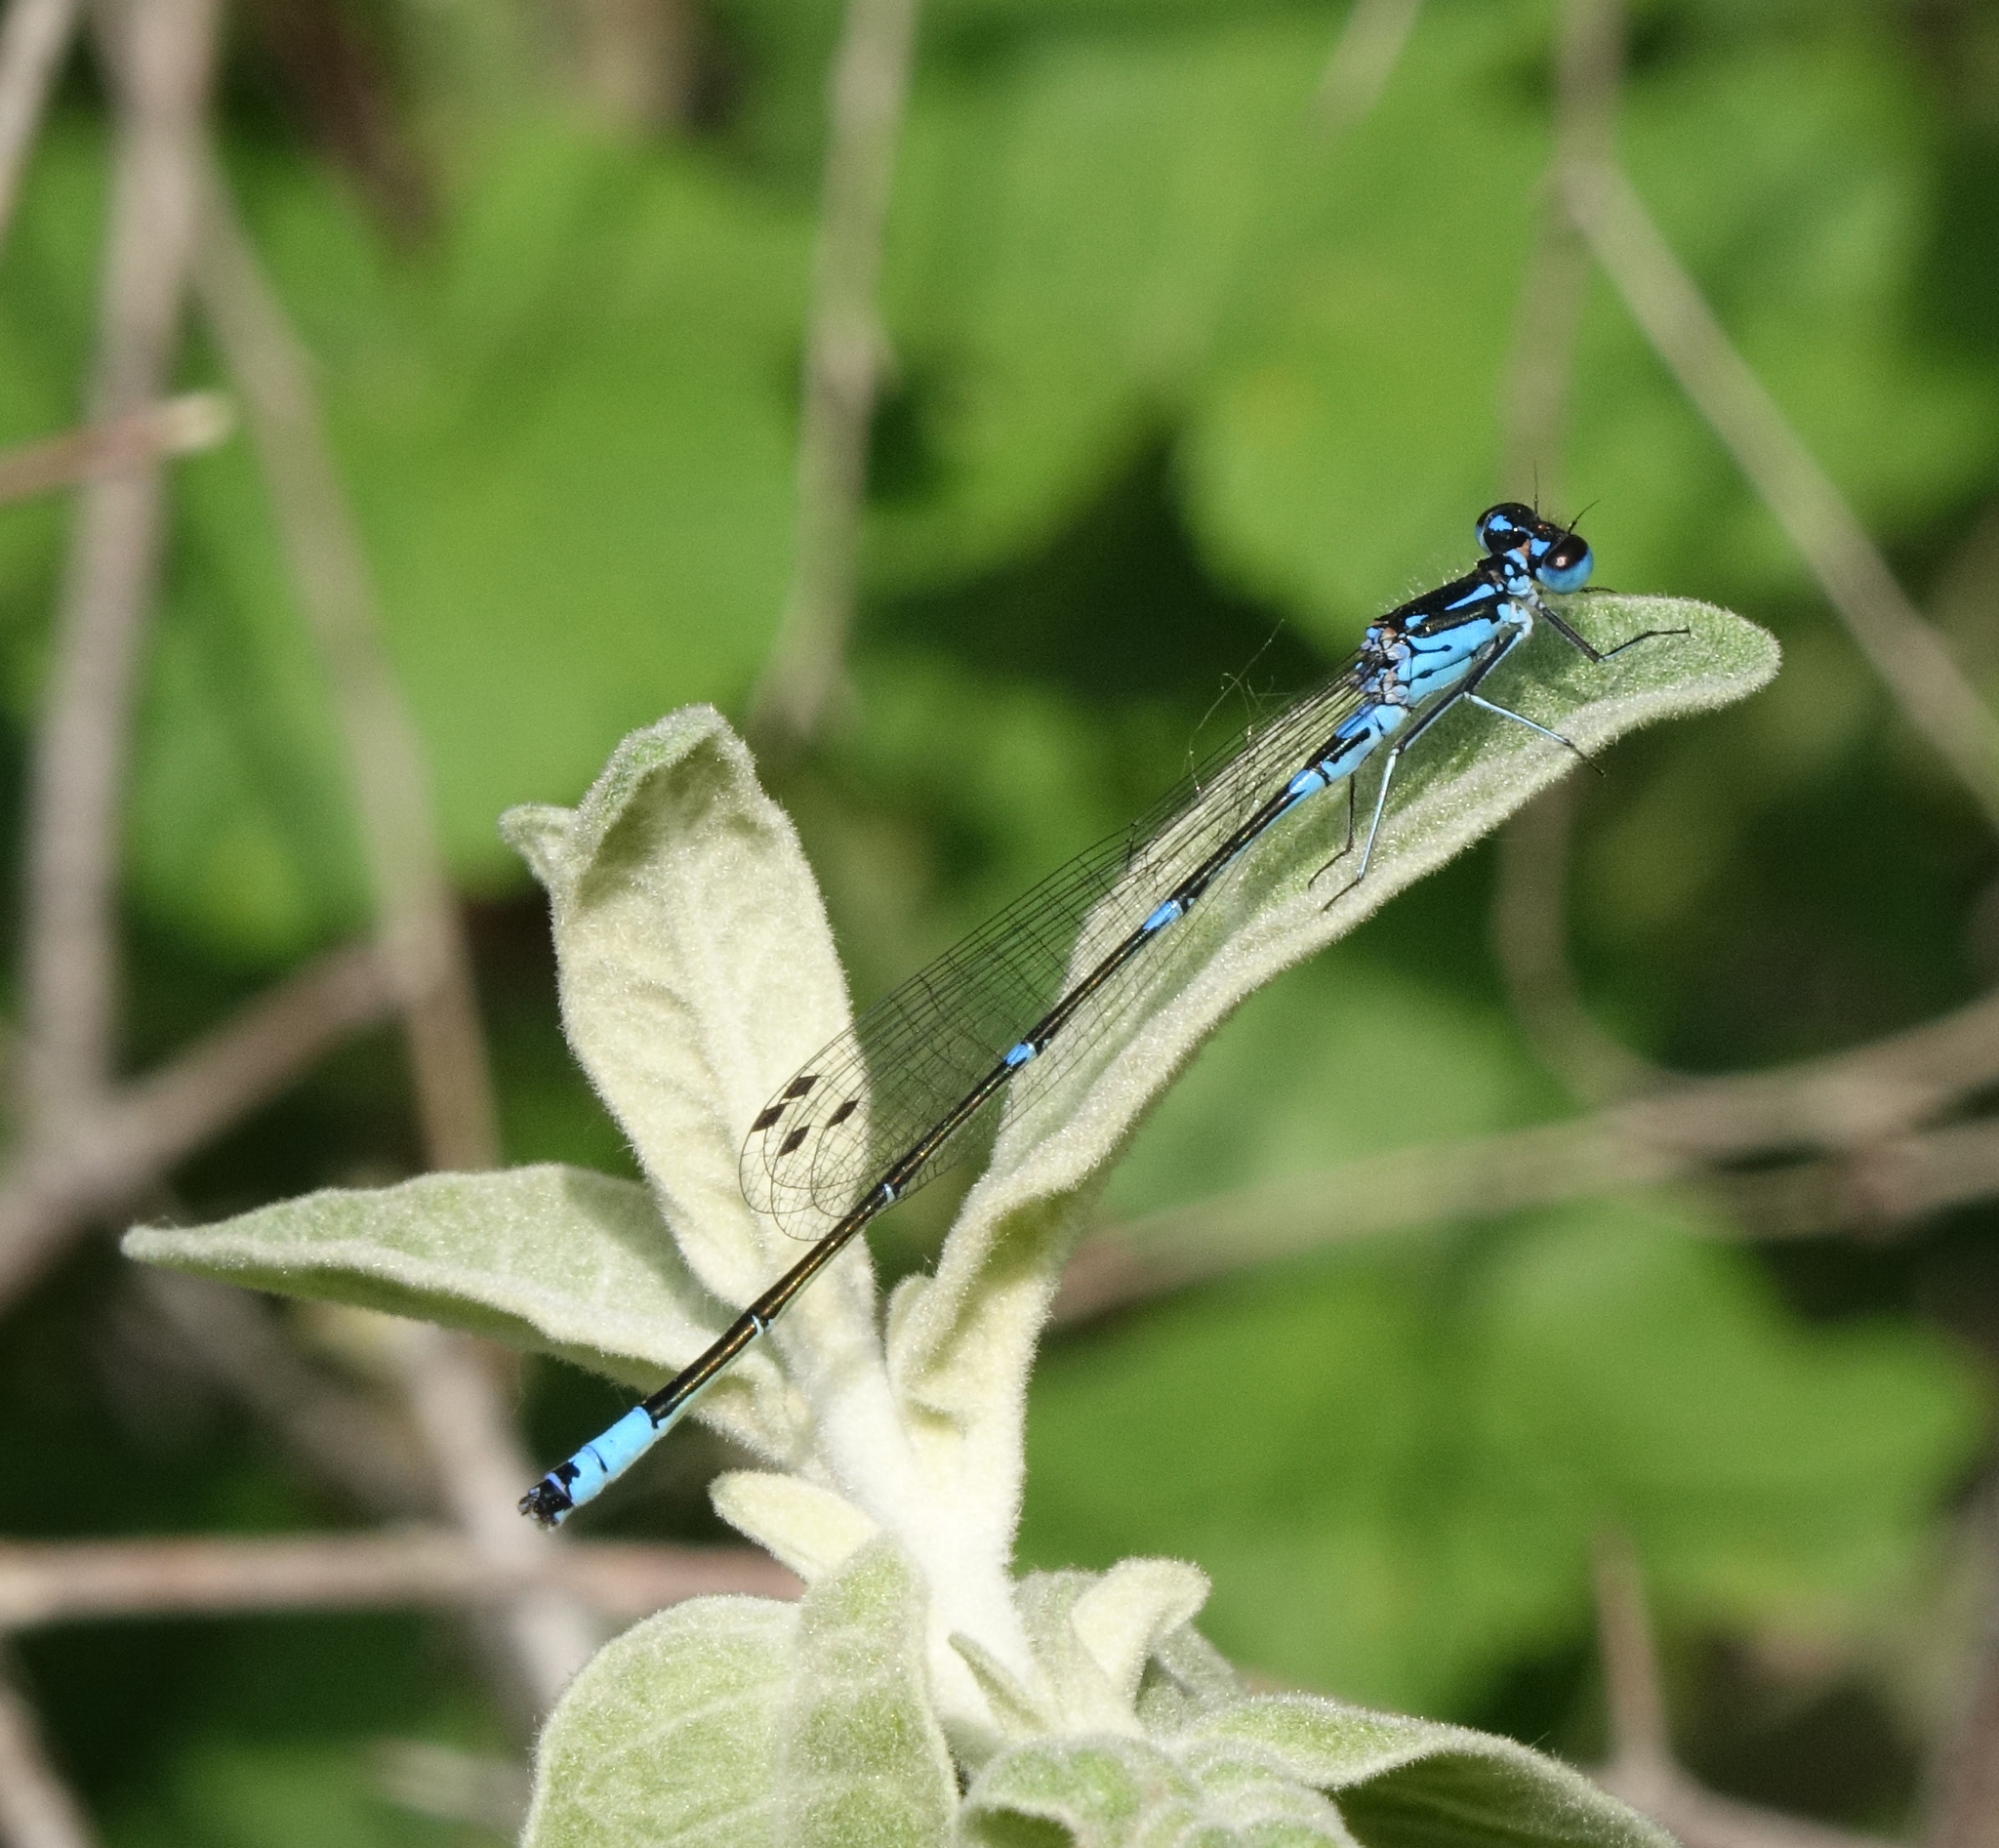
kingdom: Animalia
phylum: Arthropoda
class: Insecta
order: Odonata
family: Coenagrionidae
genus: Coenagrion
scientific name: Coenagrion pulchellum
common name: Variable bluet
